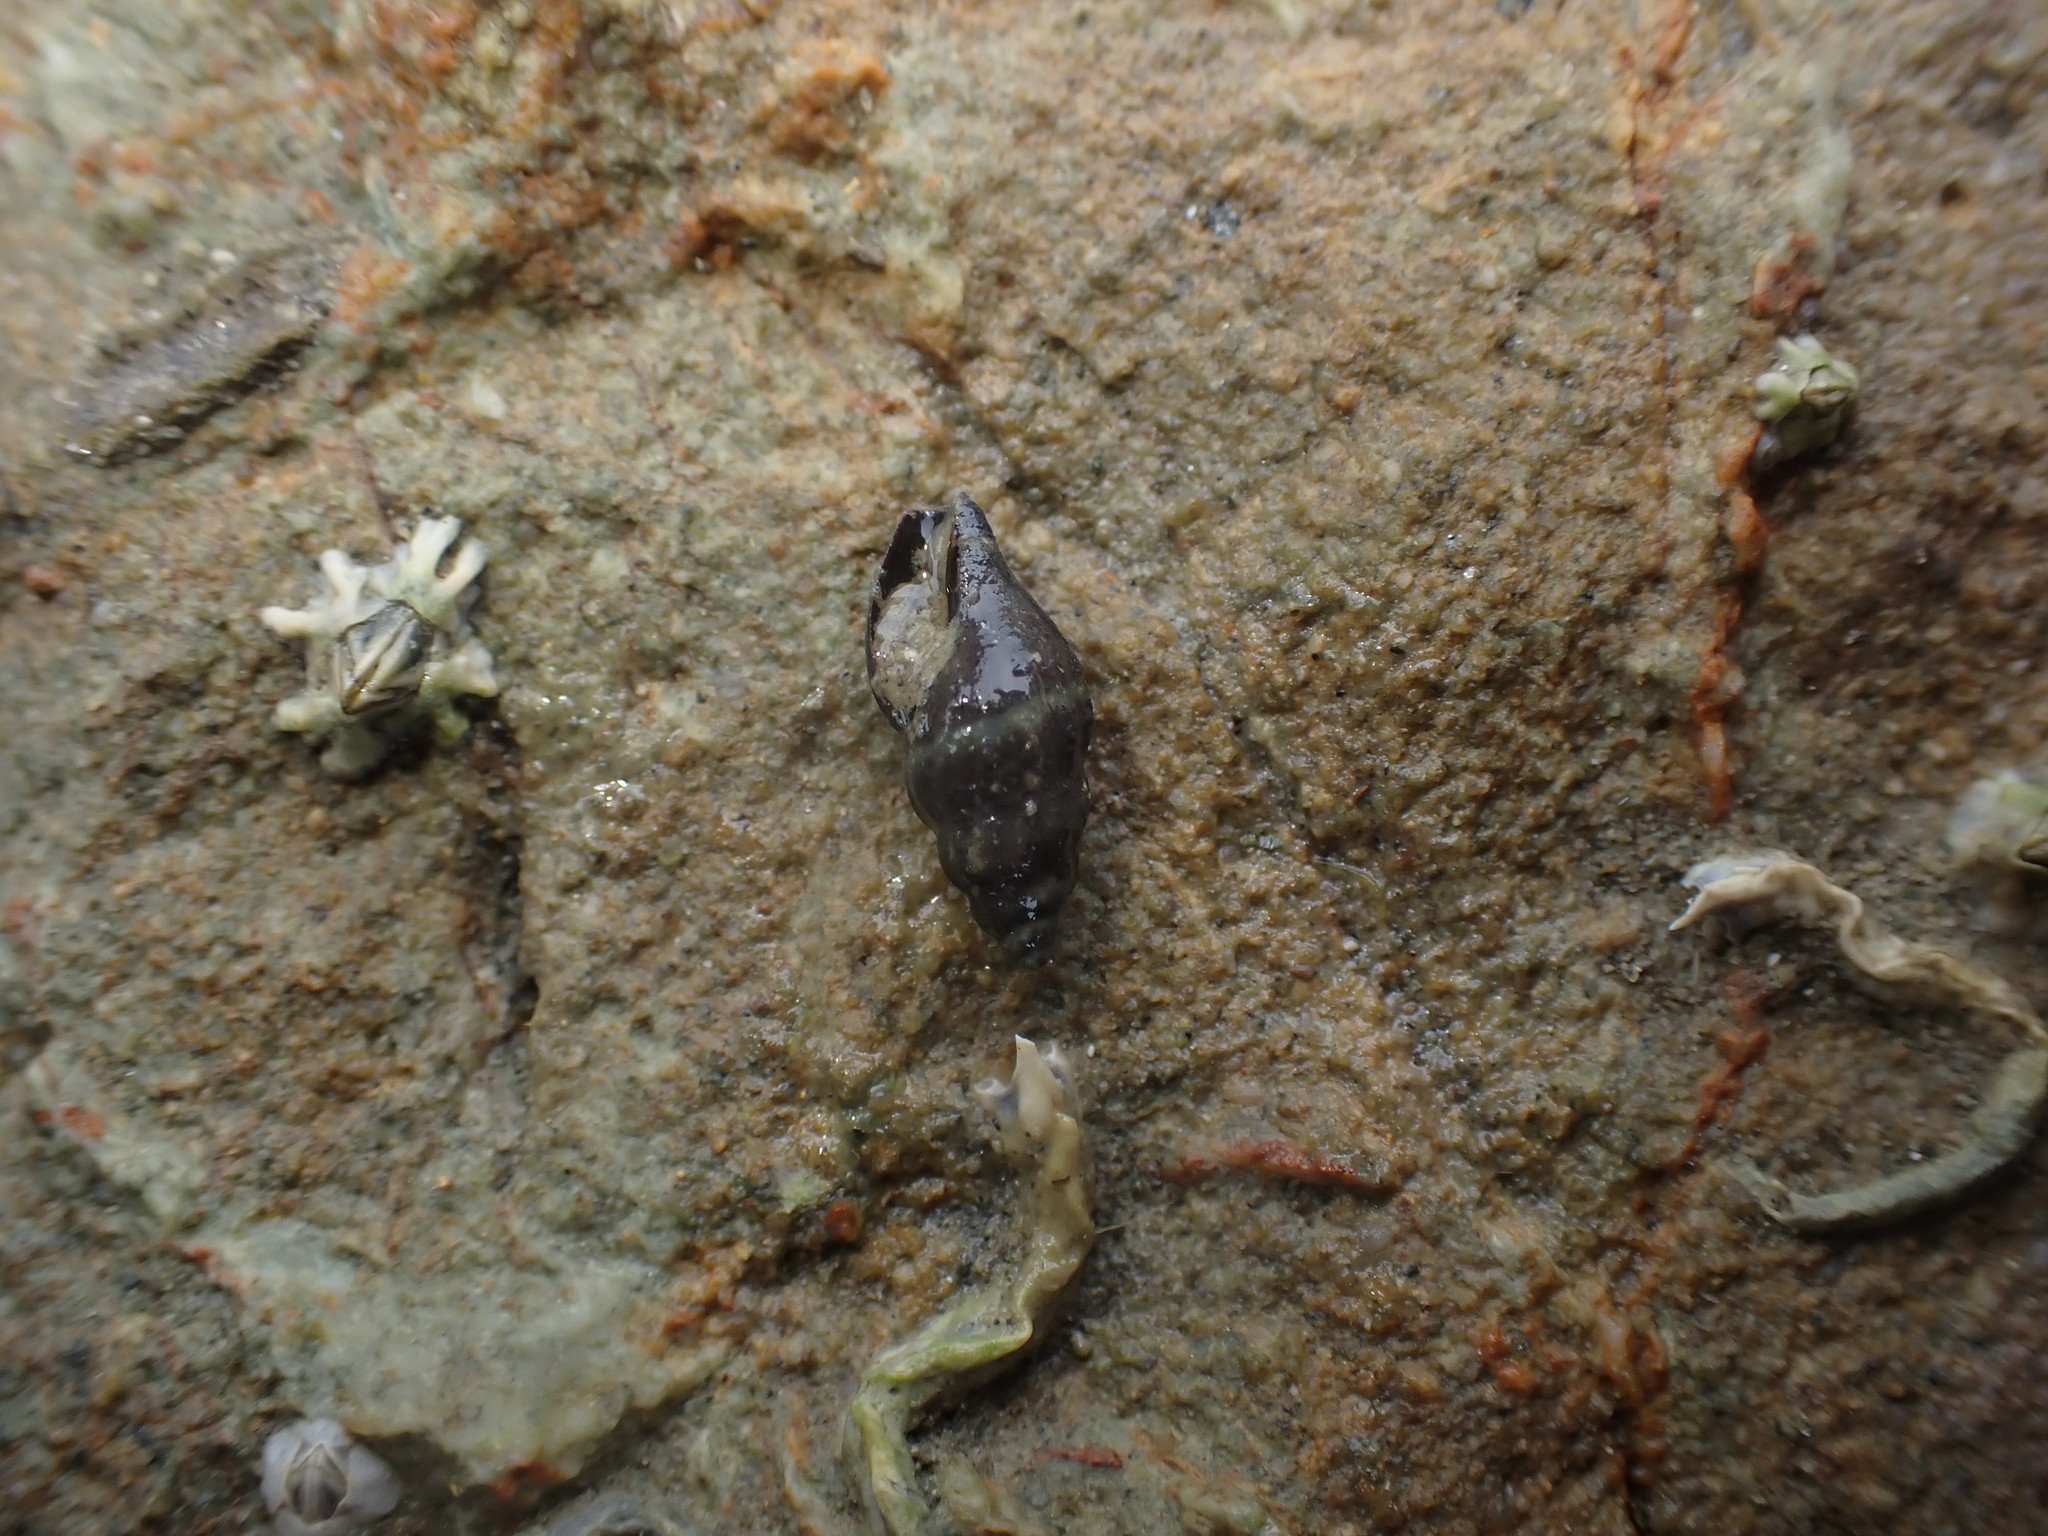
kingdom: Animalia
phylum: Mollusca
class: Gastropoda
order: Neogastropoda
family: Mangeliidae
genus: Neoguraleus
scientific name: Neoguraleus sinclairi
